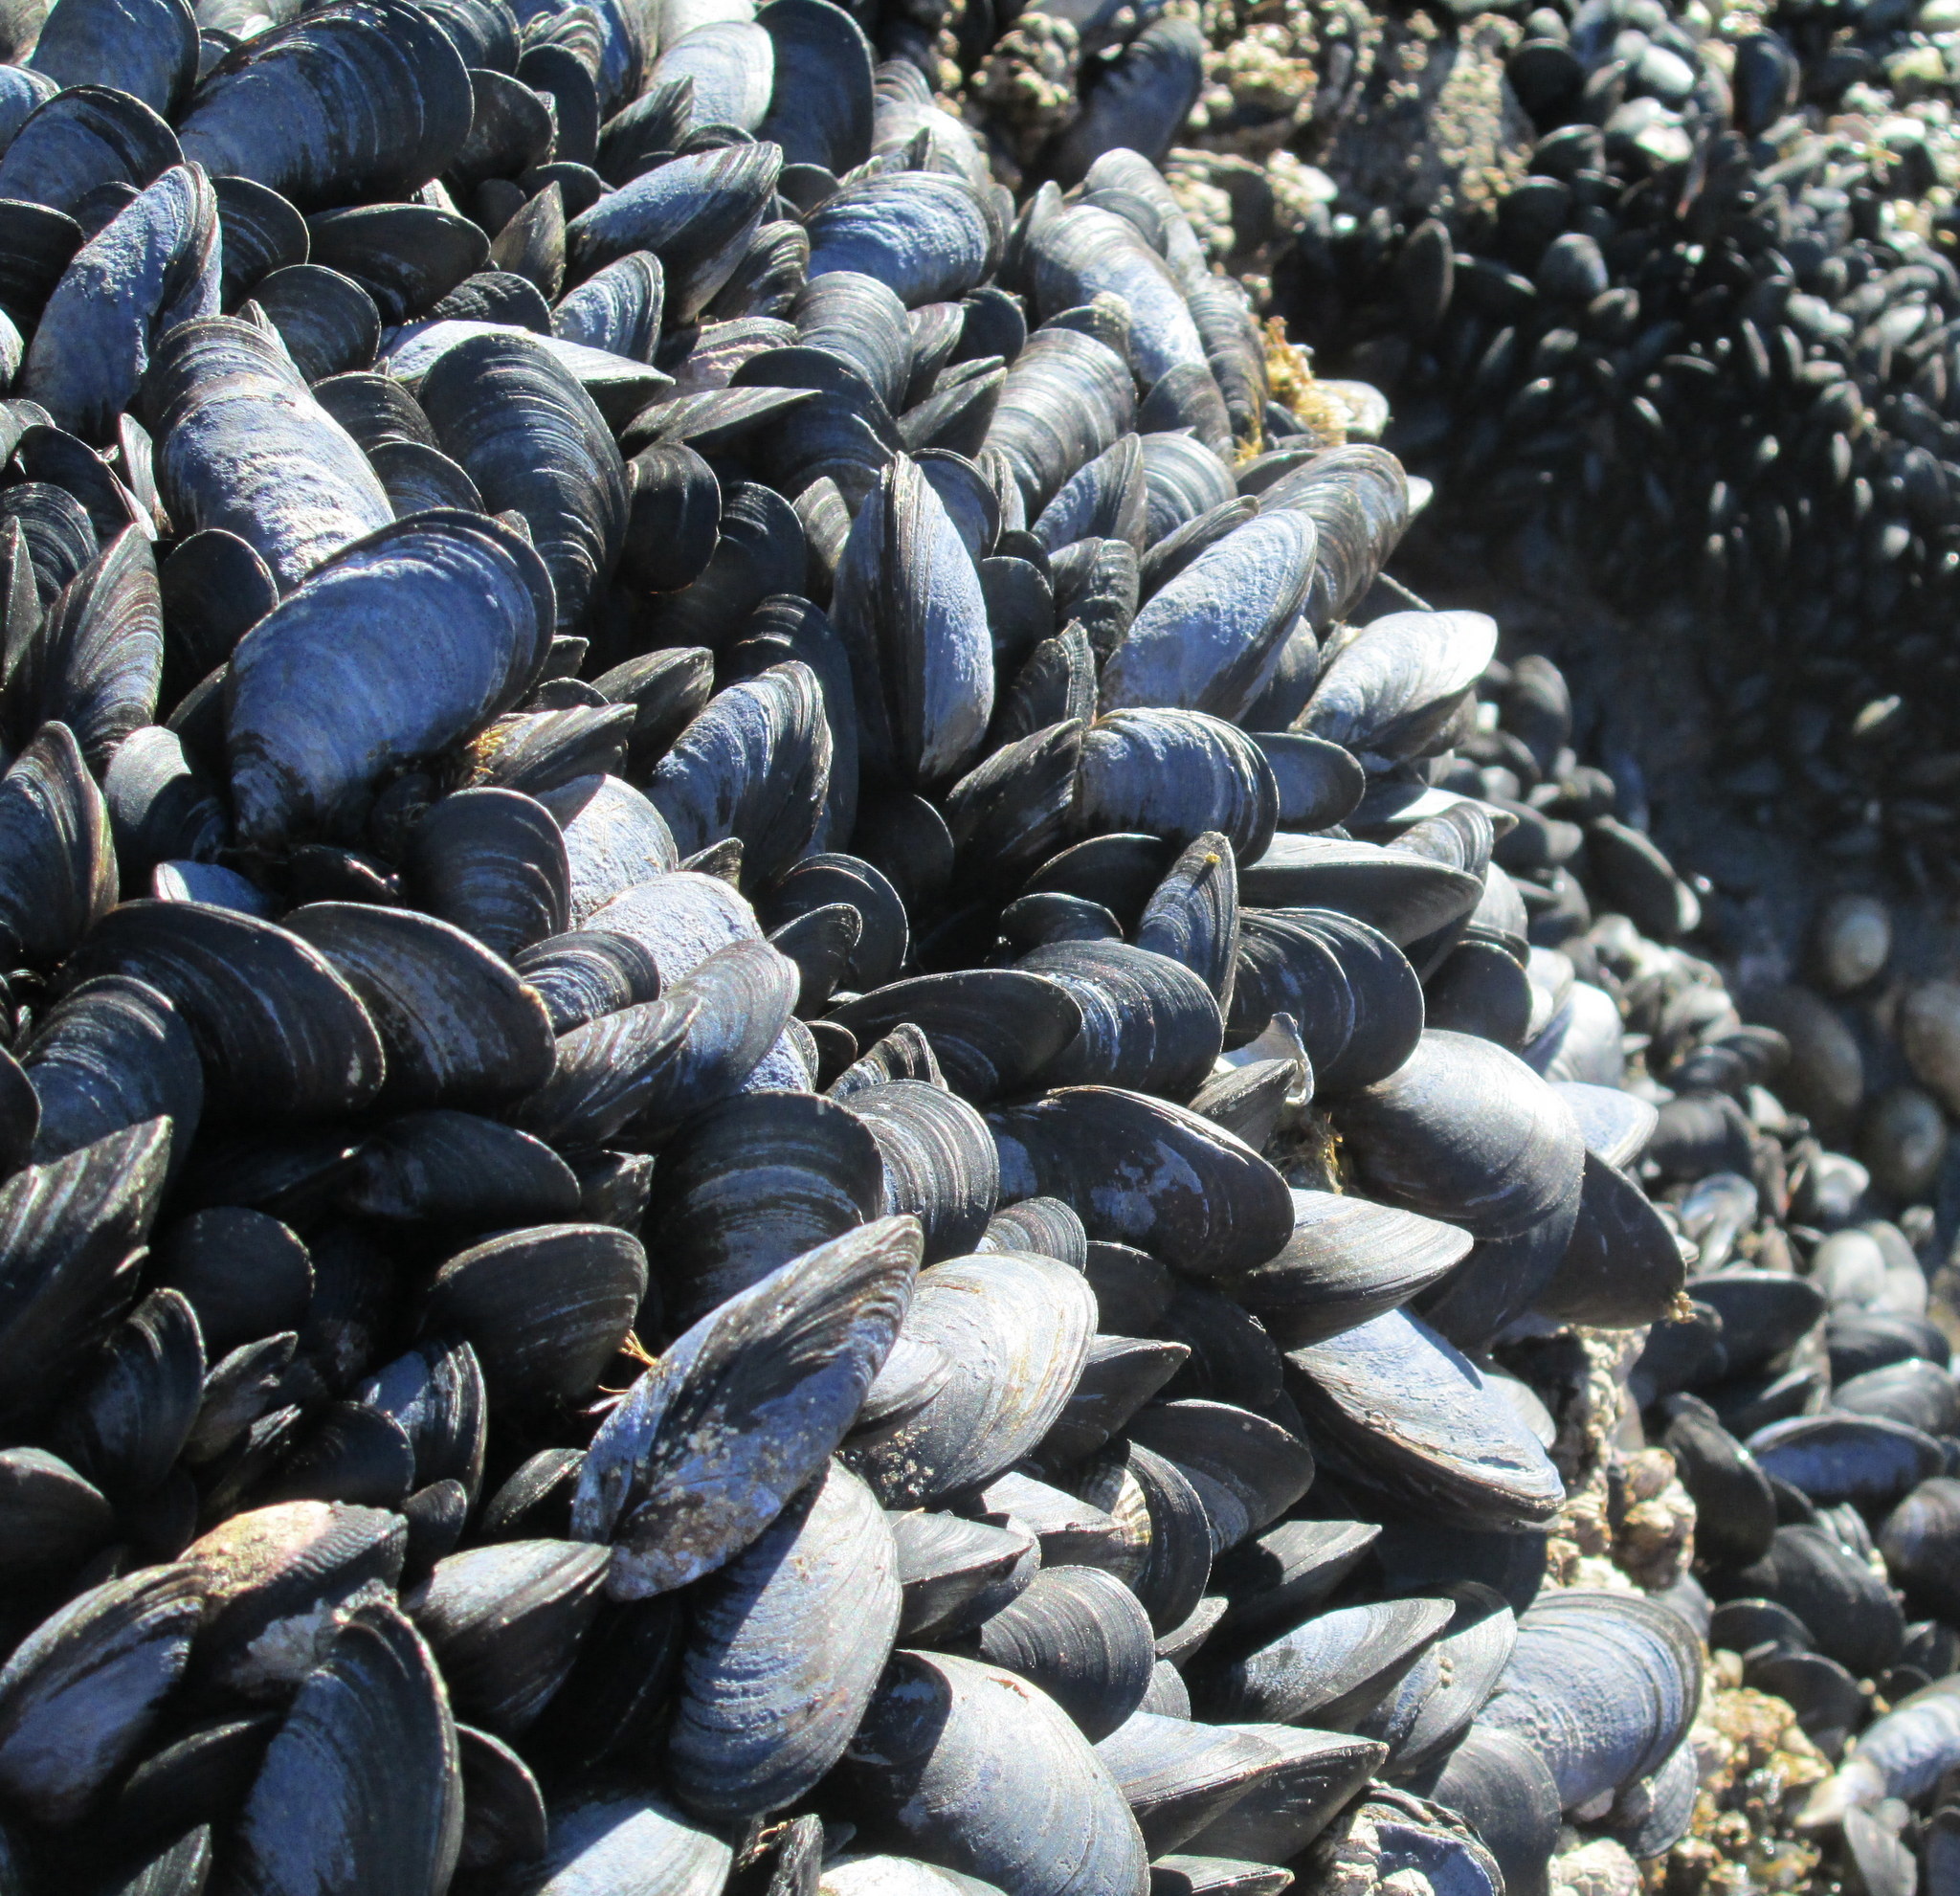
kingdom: Animalia
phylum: Mollusca
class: Bivalvia
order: Mytilida
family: Mytilidae
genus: Mytilus
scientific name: Mytilus chilensis
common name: Chilean mussel
